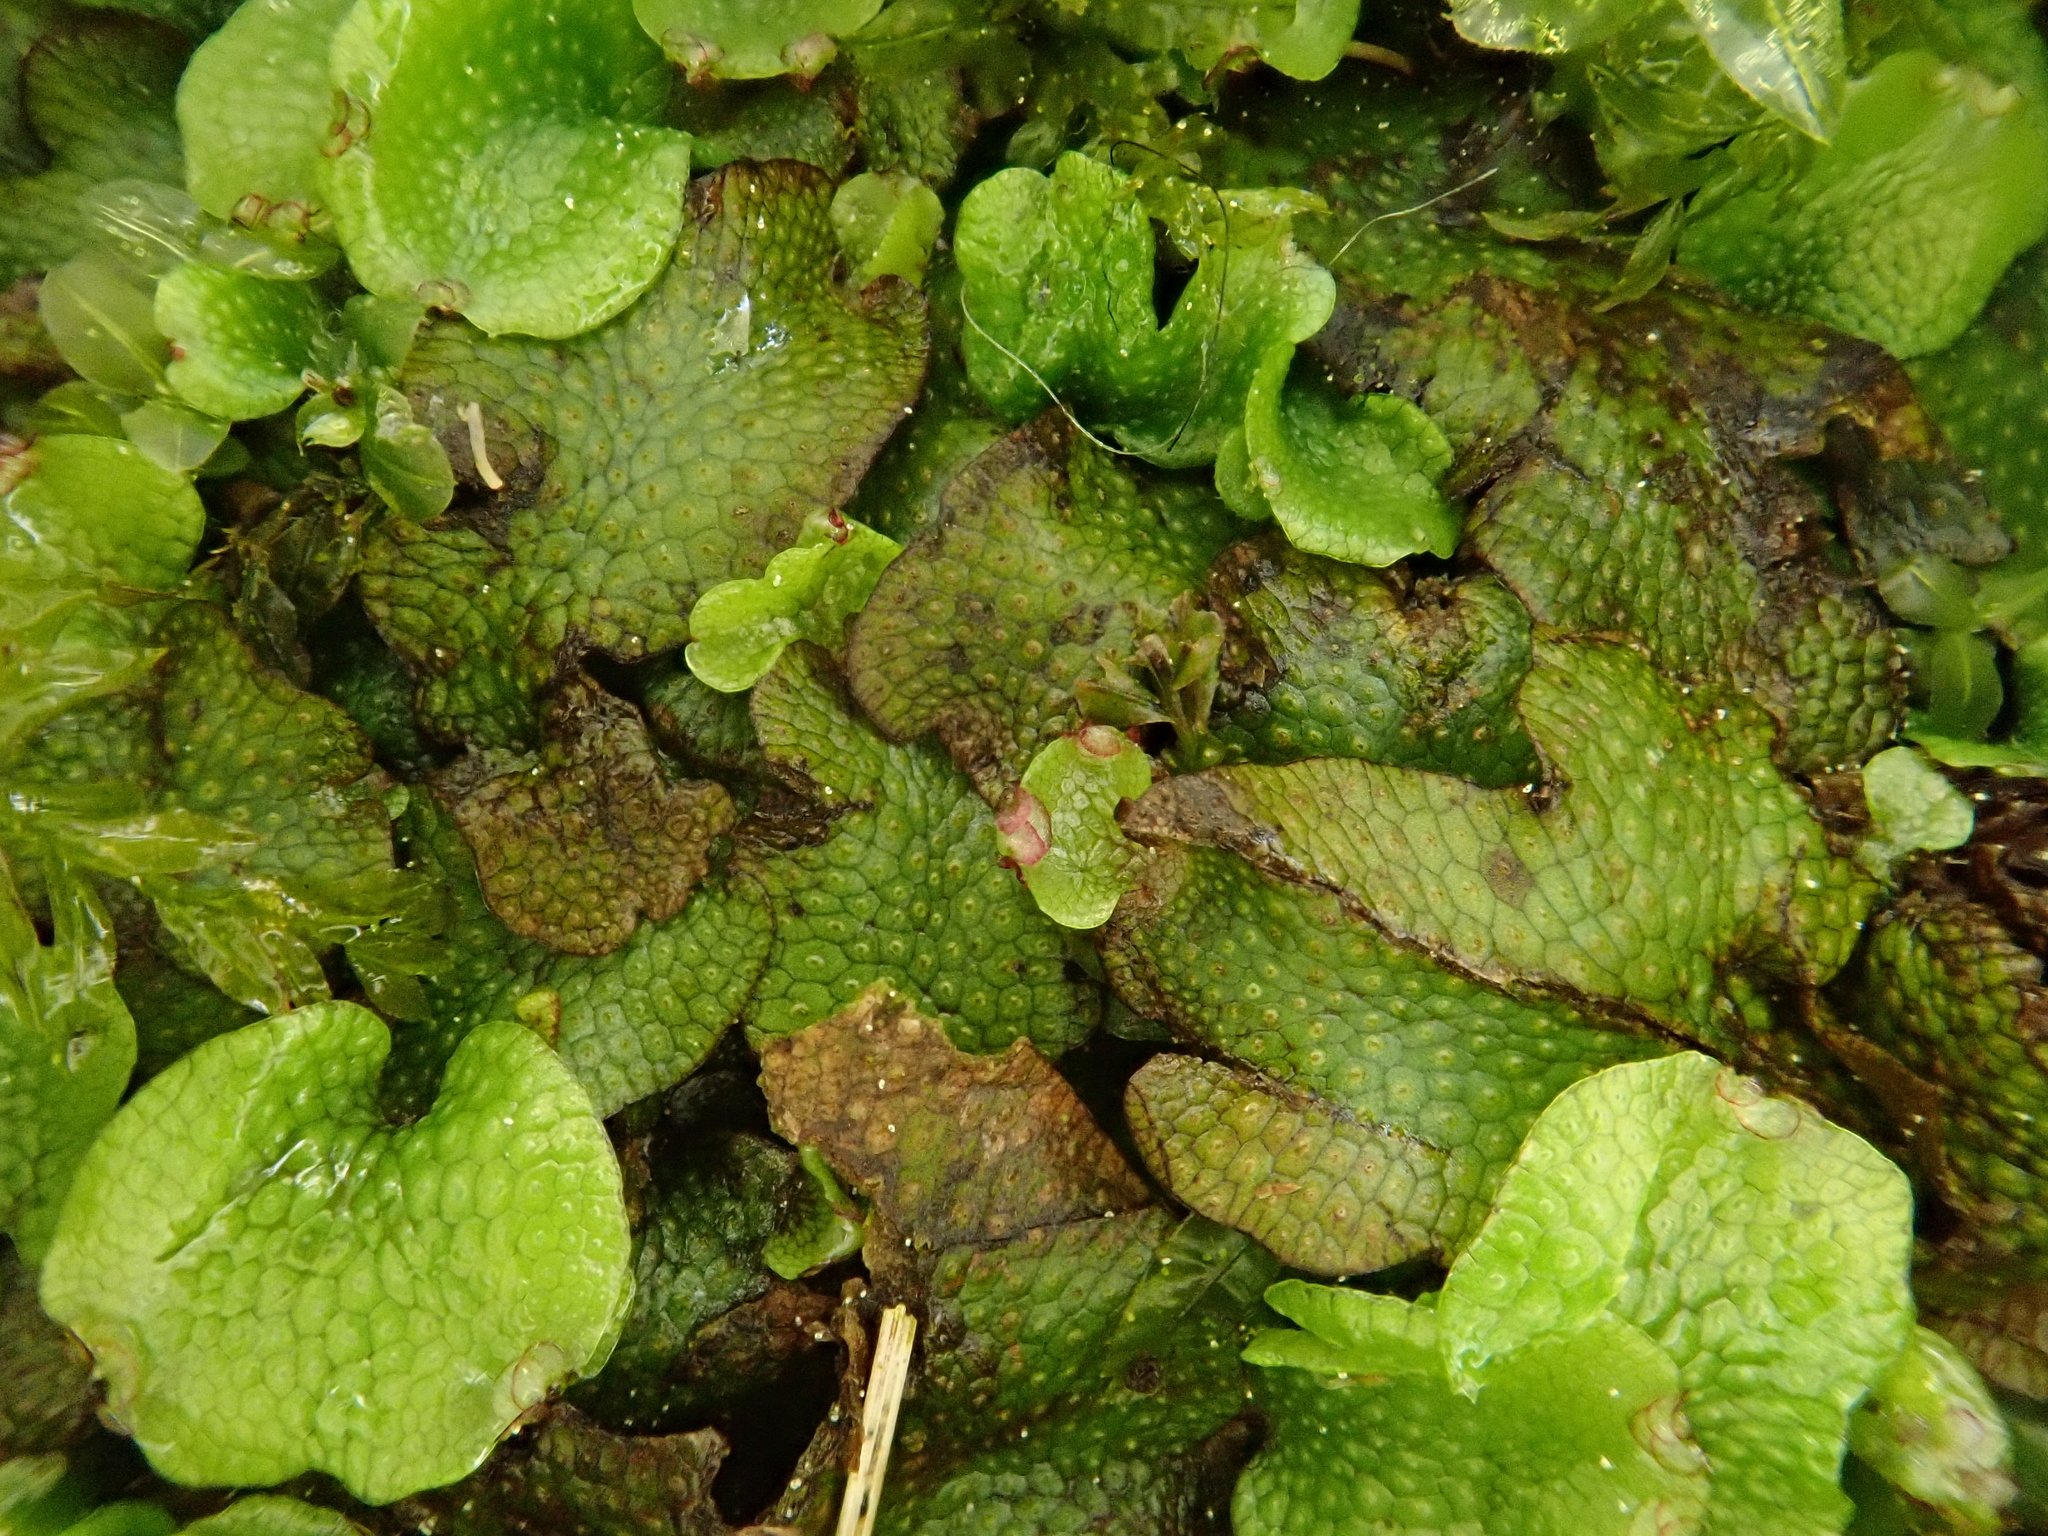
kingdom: Plantae
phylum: Marchantiophyta
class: Marchantiopsida
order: Marchantiales
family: Conocephalaceae
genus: Conocephalum
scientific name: Conocephalum salebrosum
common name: Cat-tongue liverwort
